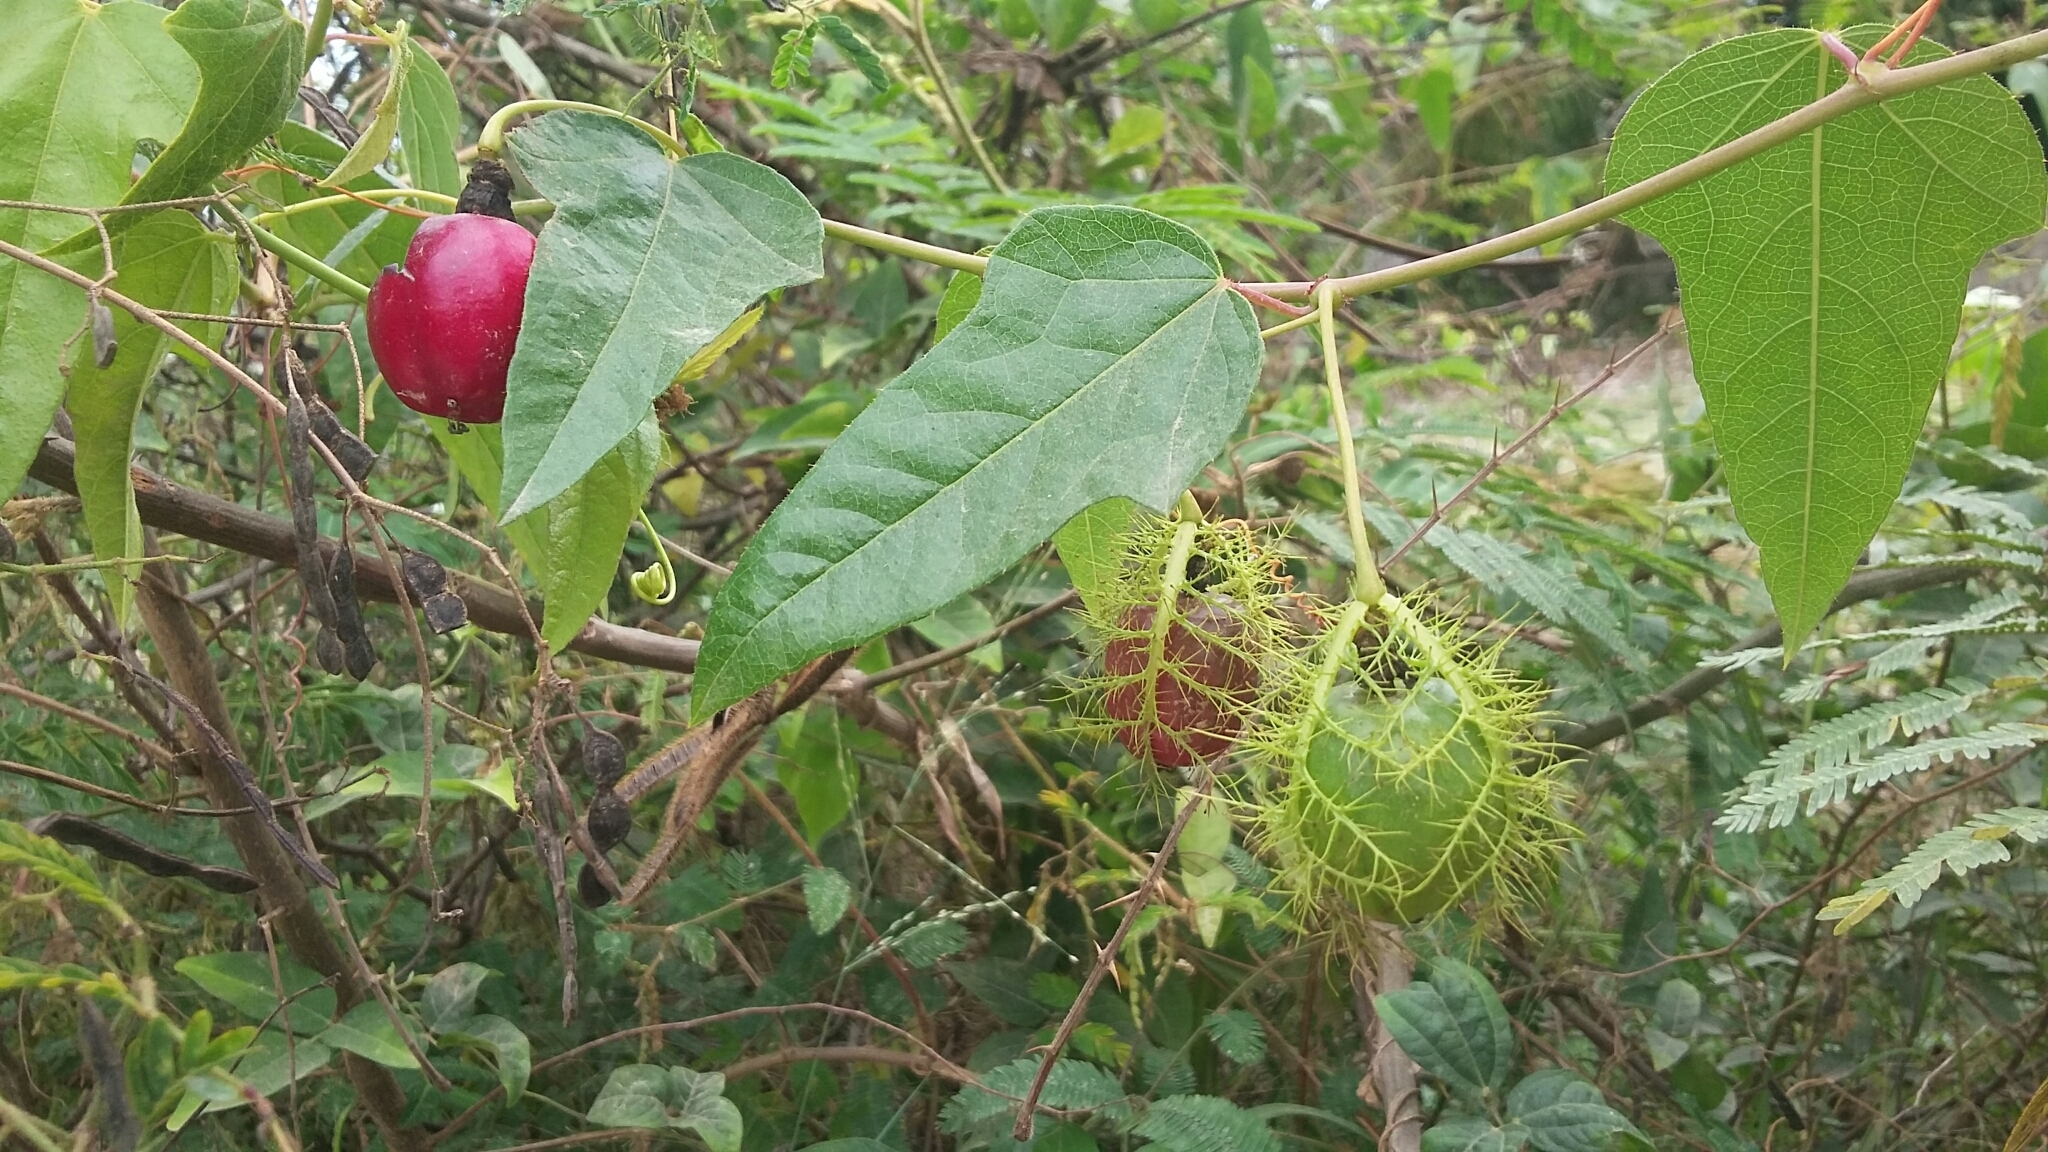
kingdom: Plantae
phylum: Tracheophyta
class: Magnoliopsida
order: Malpighiales
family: Passifloraceae
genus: Passiflora
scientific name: Passiflora ciliata
